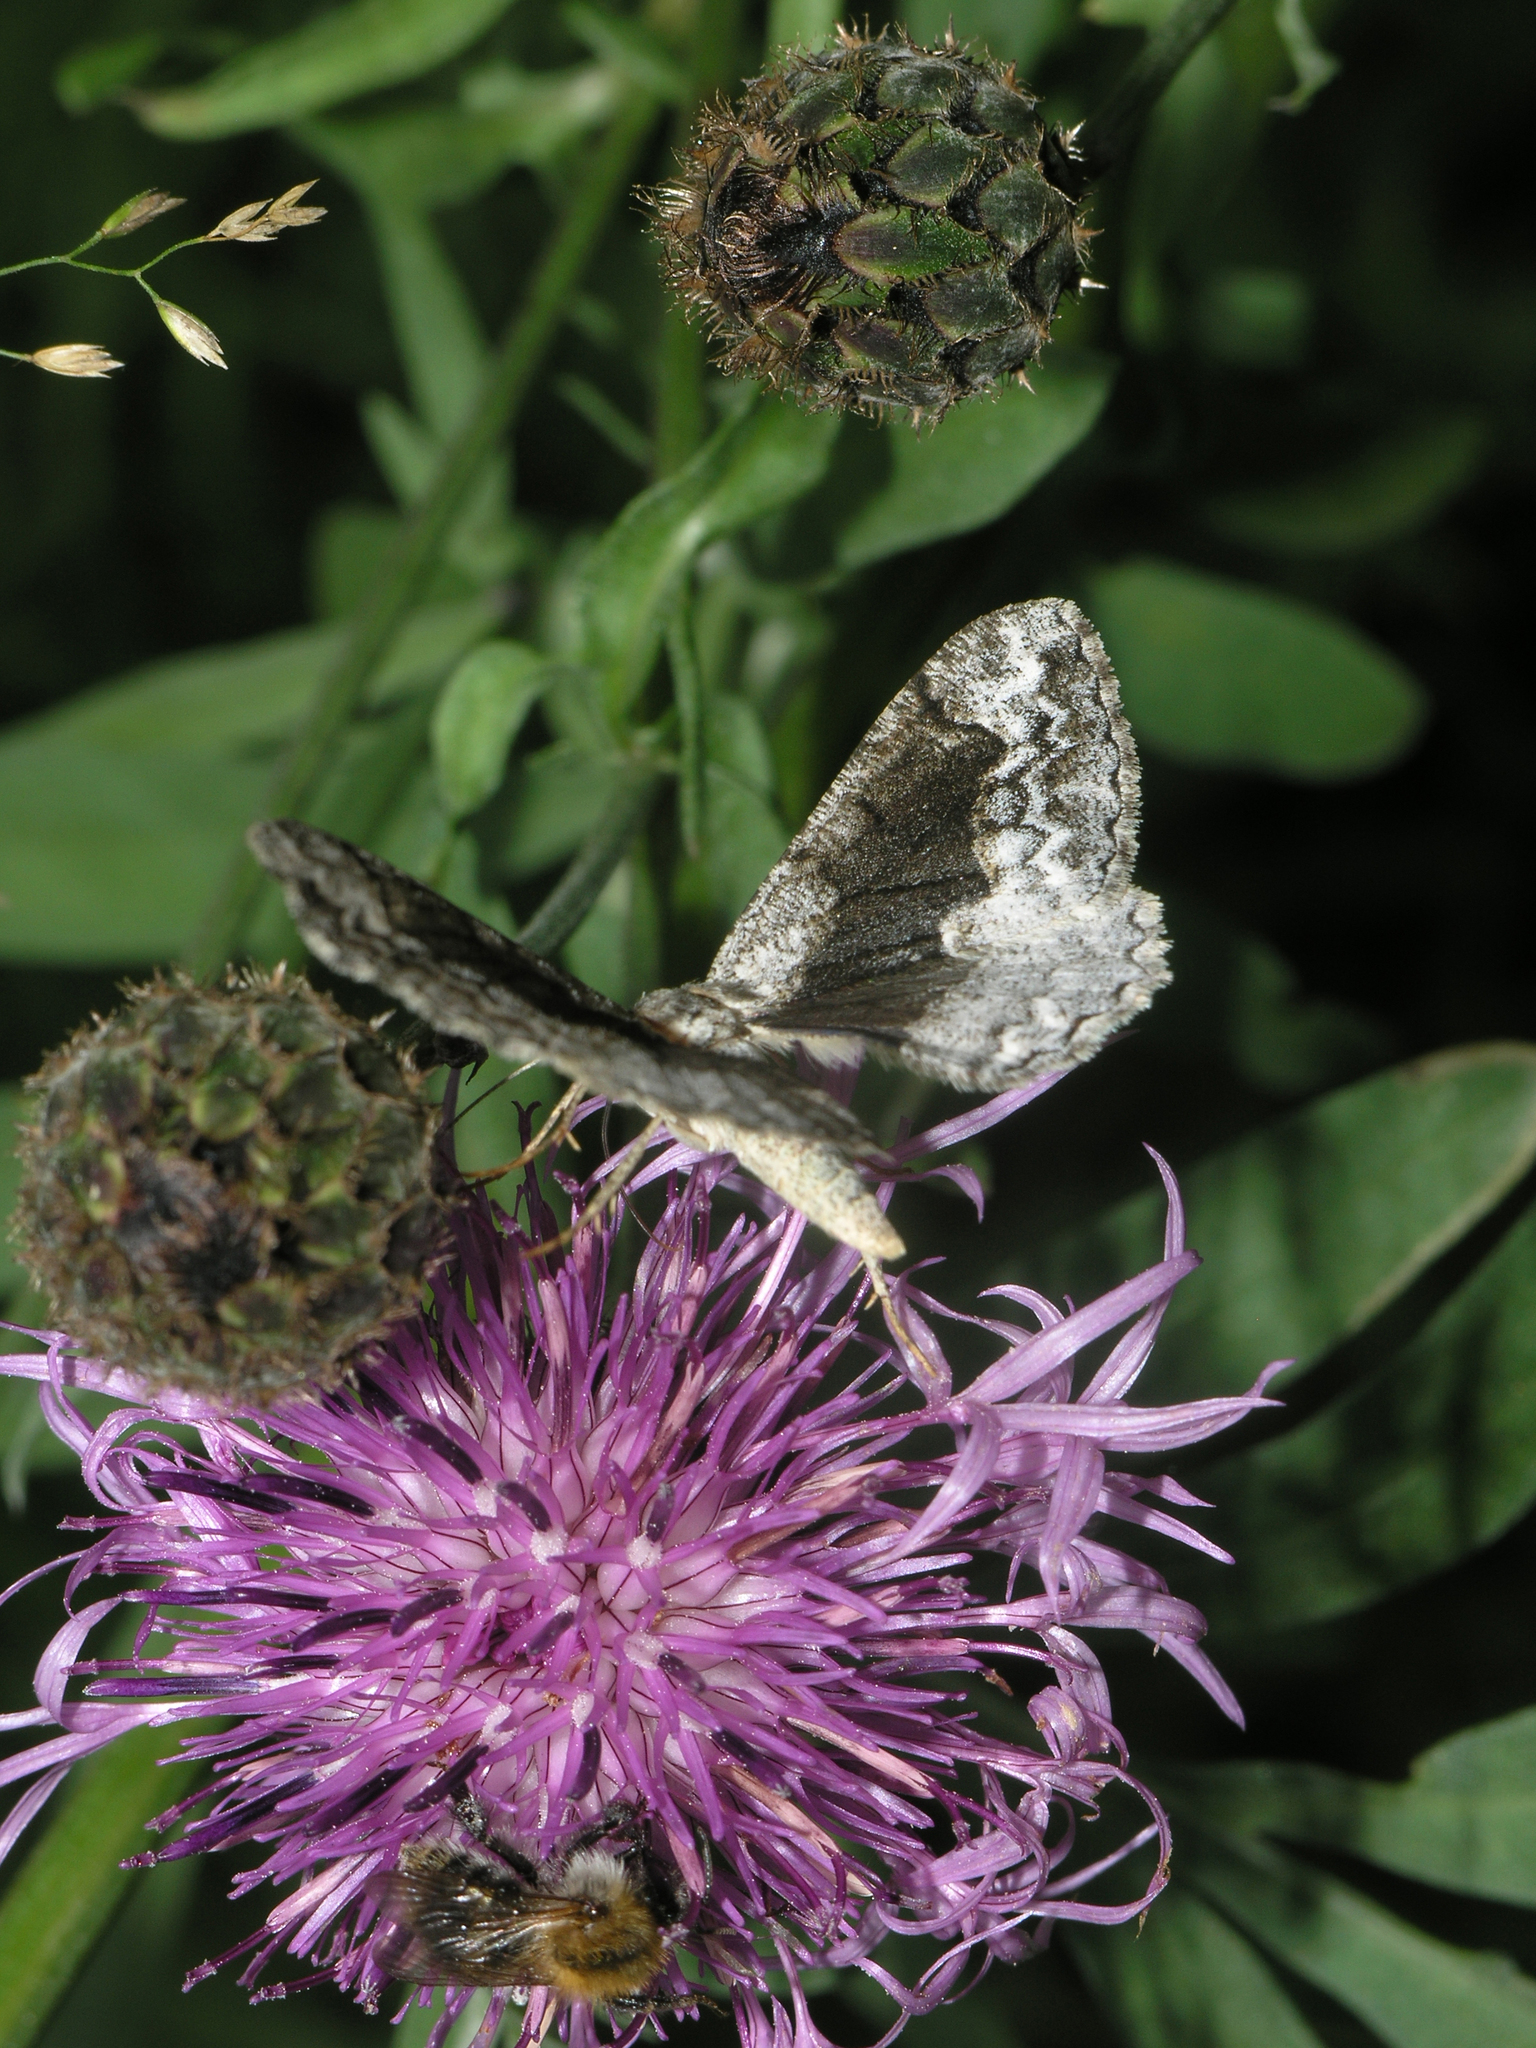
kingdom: Animalia
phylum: Arthropoda
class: Insecta
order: Lepidoptera
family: Geometridae
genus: Alcis
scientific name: Alcis repandata
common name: Mottled beauty
